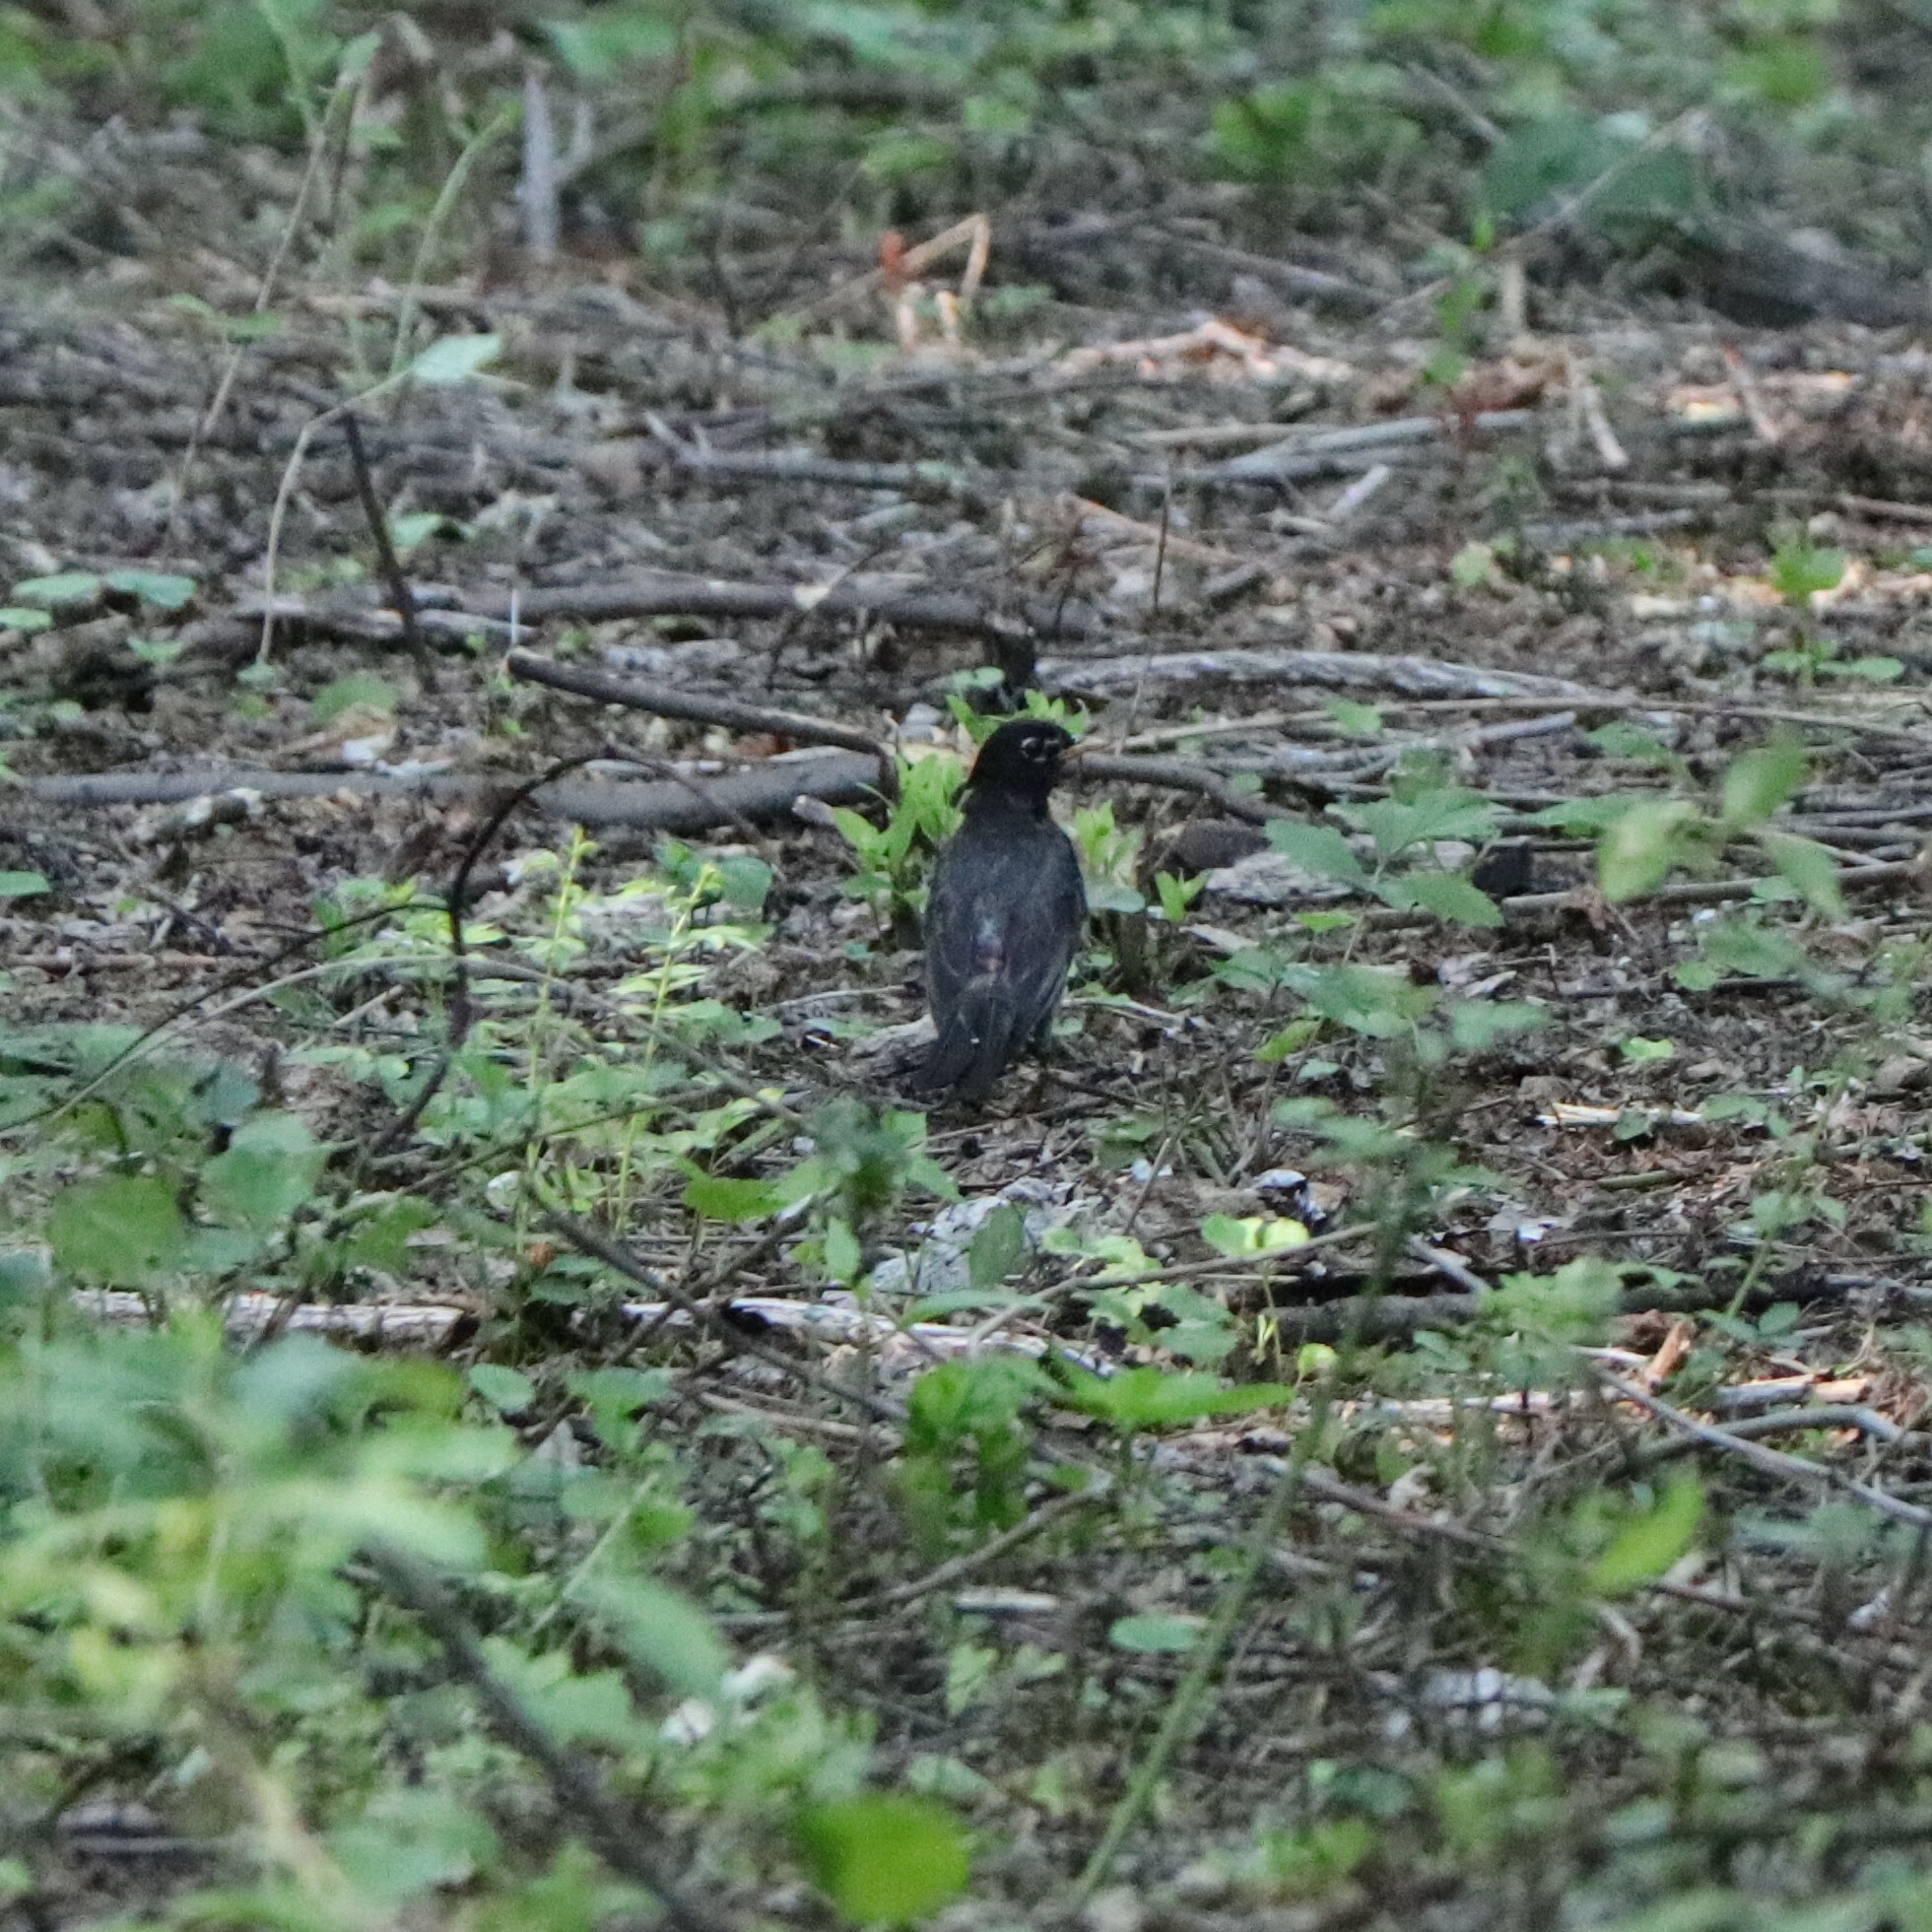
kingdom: Animalia
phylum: Chordata
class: Aves
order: Passeriformes
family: Turdidae
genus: Turdus
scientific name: Turdus migratorius
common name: American robin
